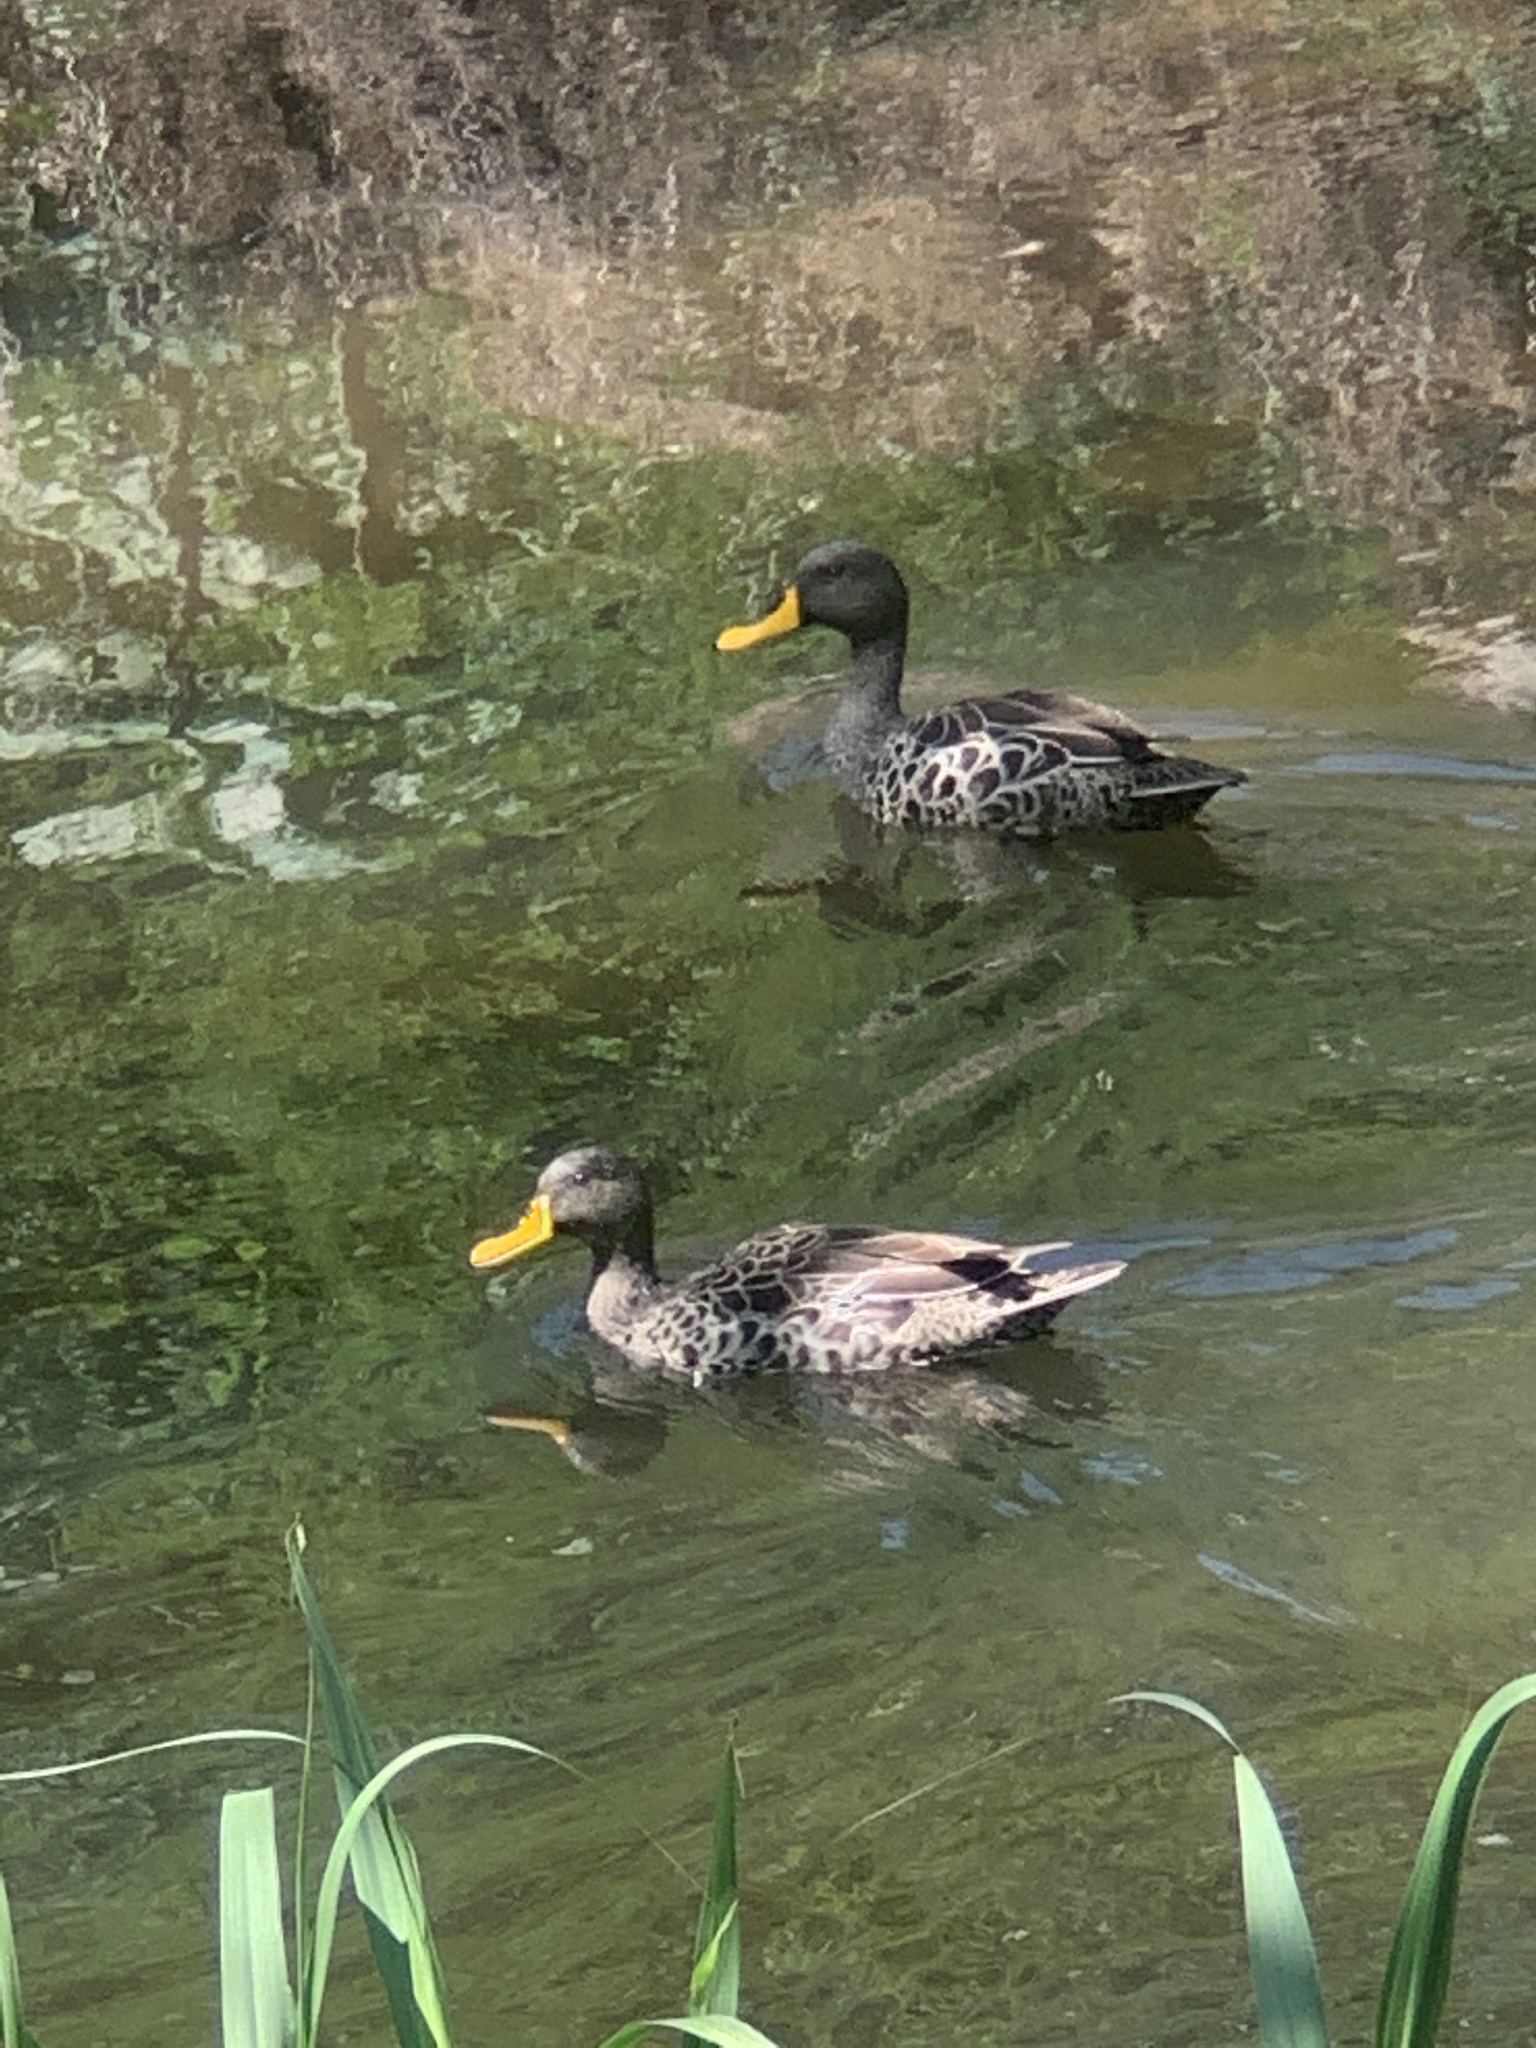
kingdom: Animalia
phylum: Chordata
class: Aves
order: Anseriformes
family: Anatidae
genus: Anas
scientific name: Anas undulata
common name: Yellow-billed duck
